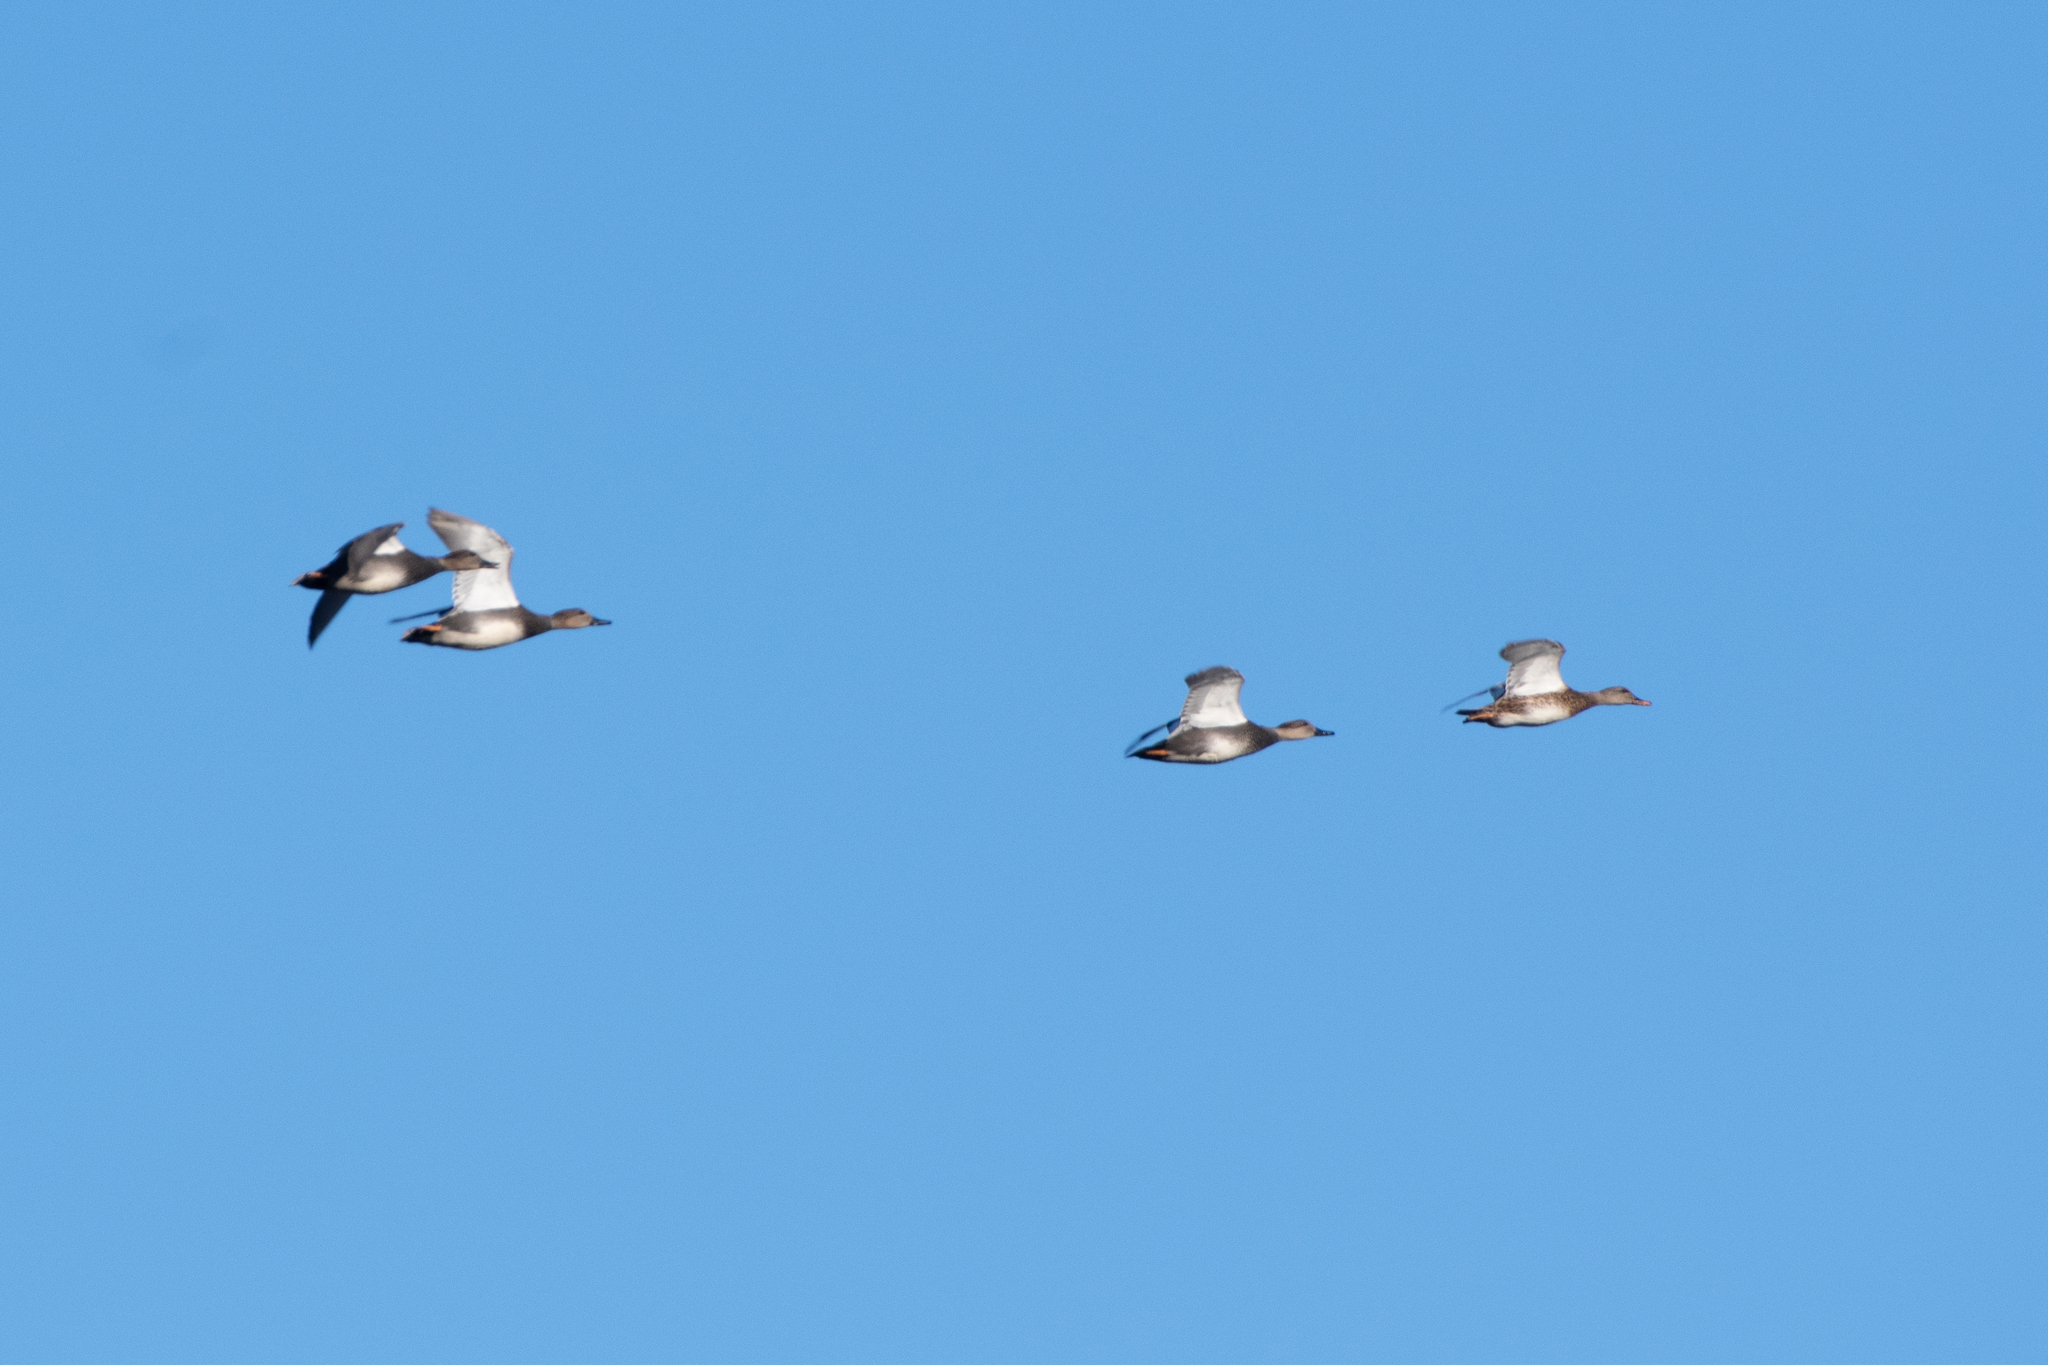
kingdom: Animalia
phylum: Chordata
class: Aves
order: Anseriformes
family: Anatidae
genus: Mareca
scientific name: Mareca strepera
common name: Gadwall
